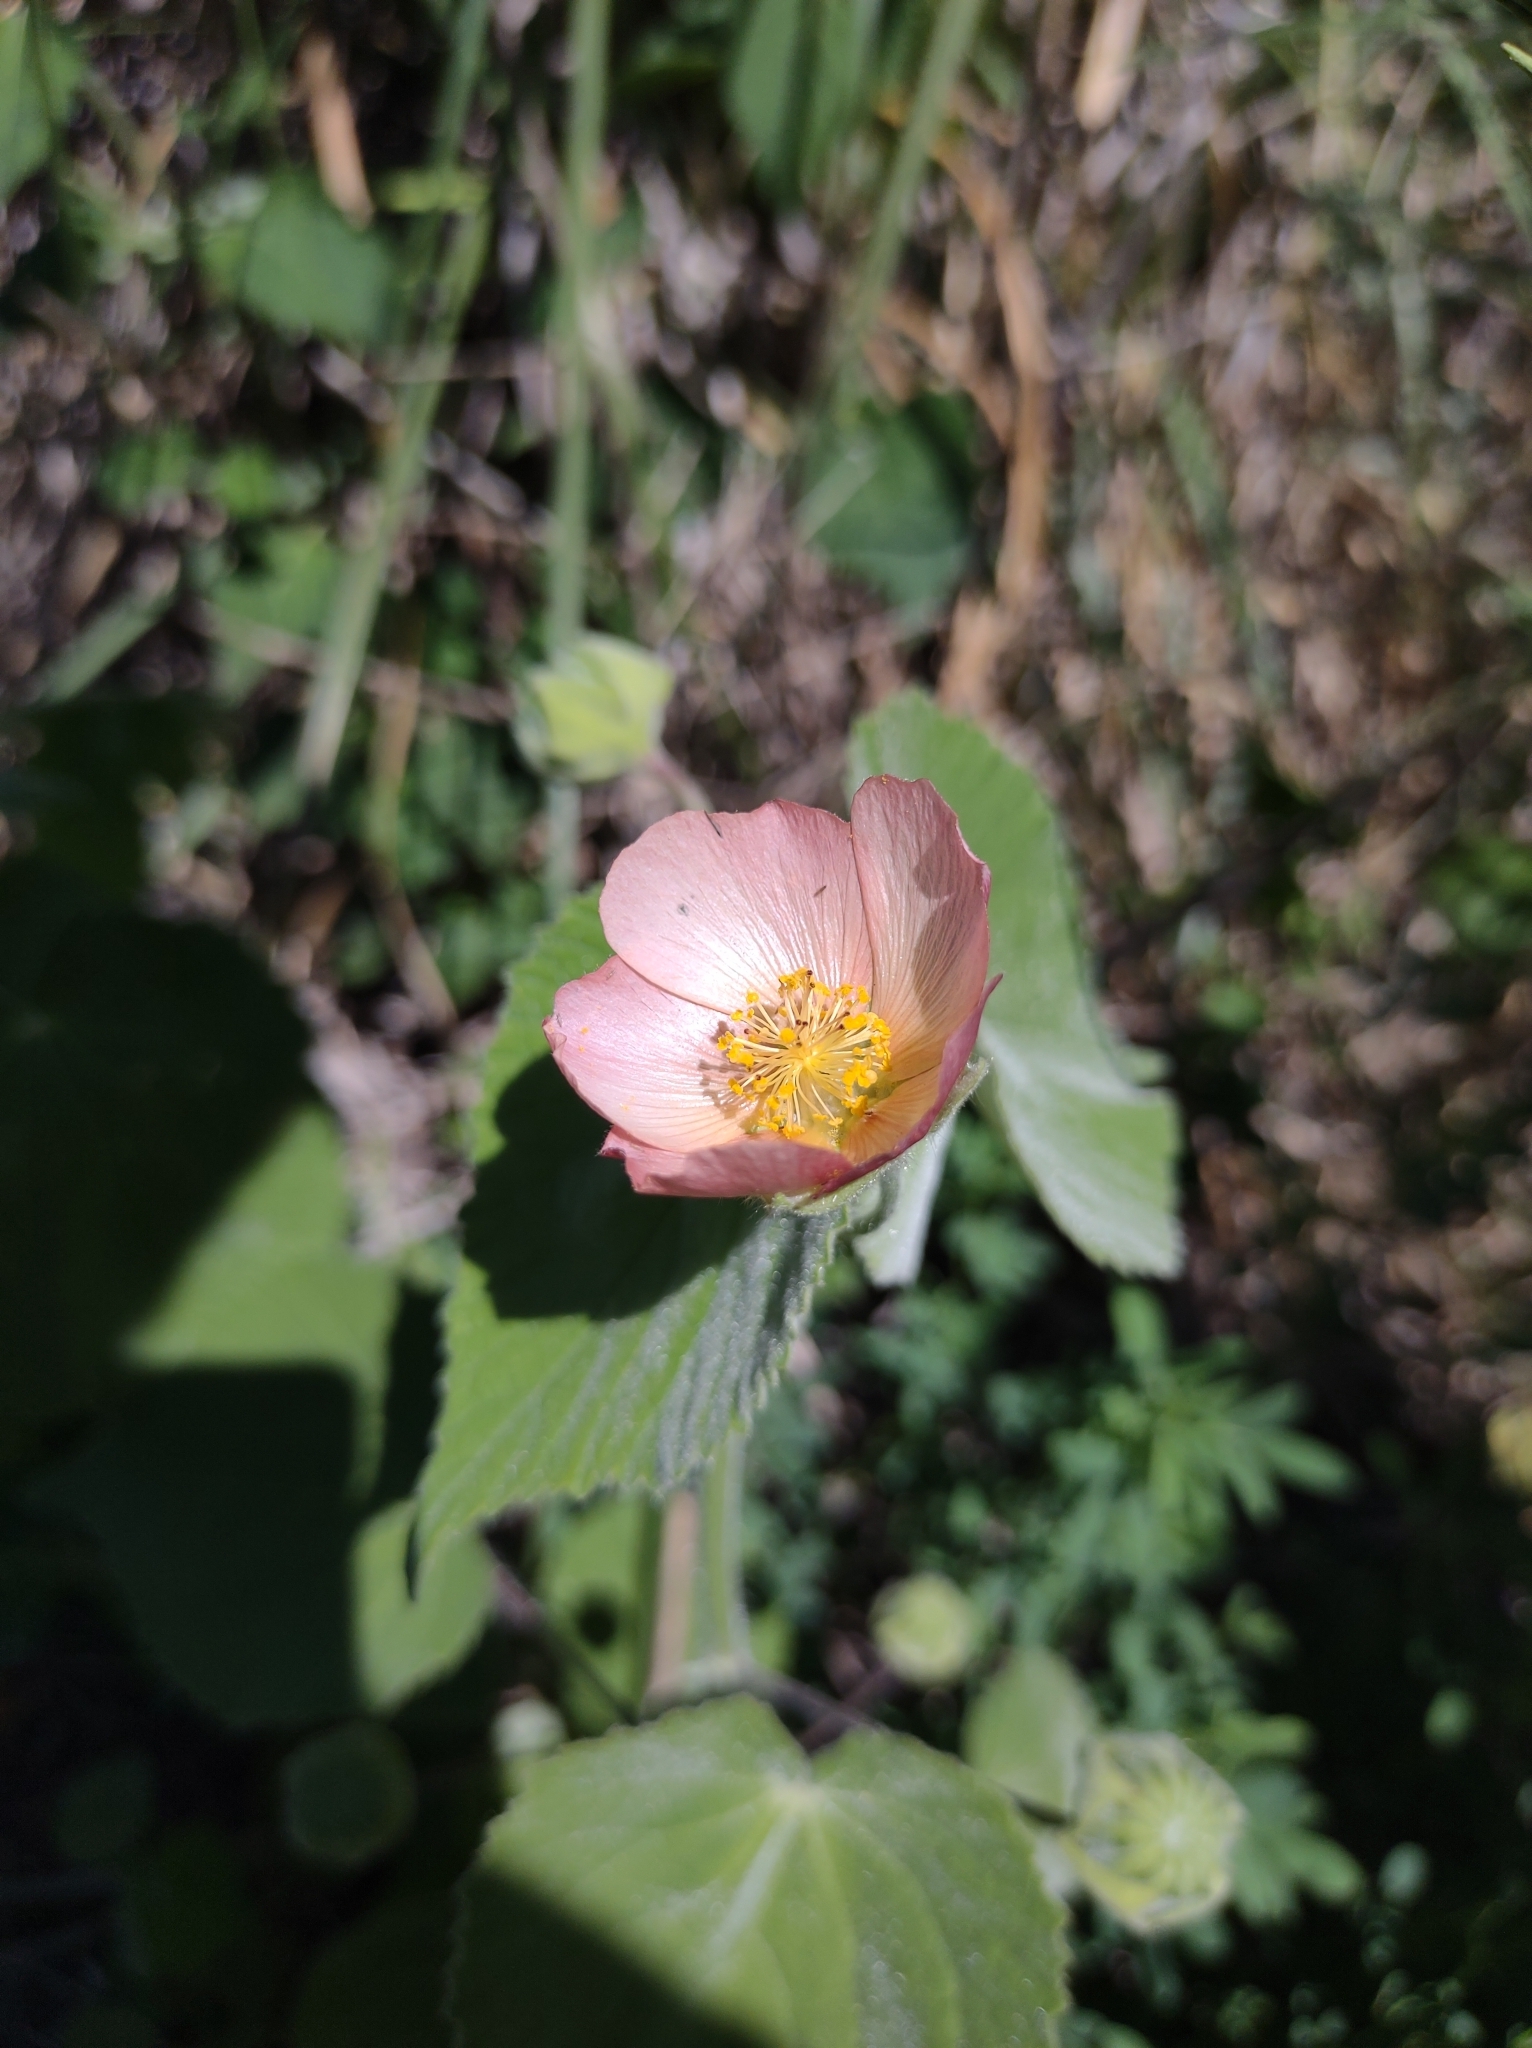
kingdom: Plantae
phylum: Tracheophyta
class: Magnoliopsida
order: Malvales
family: Malvaceae
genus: Callianthe
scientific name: Callianthe pauciflora
